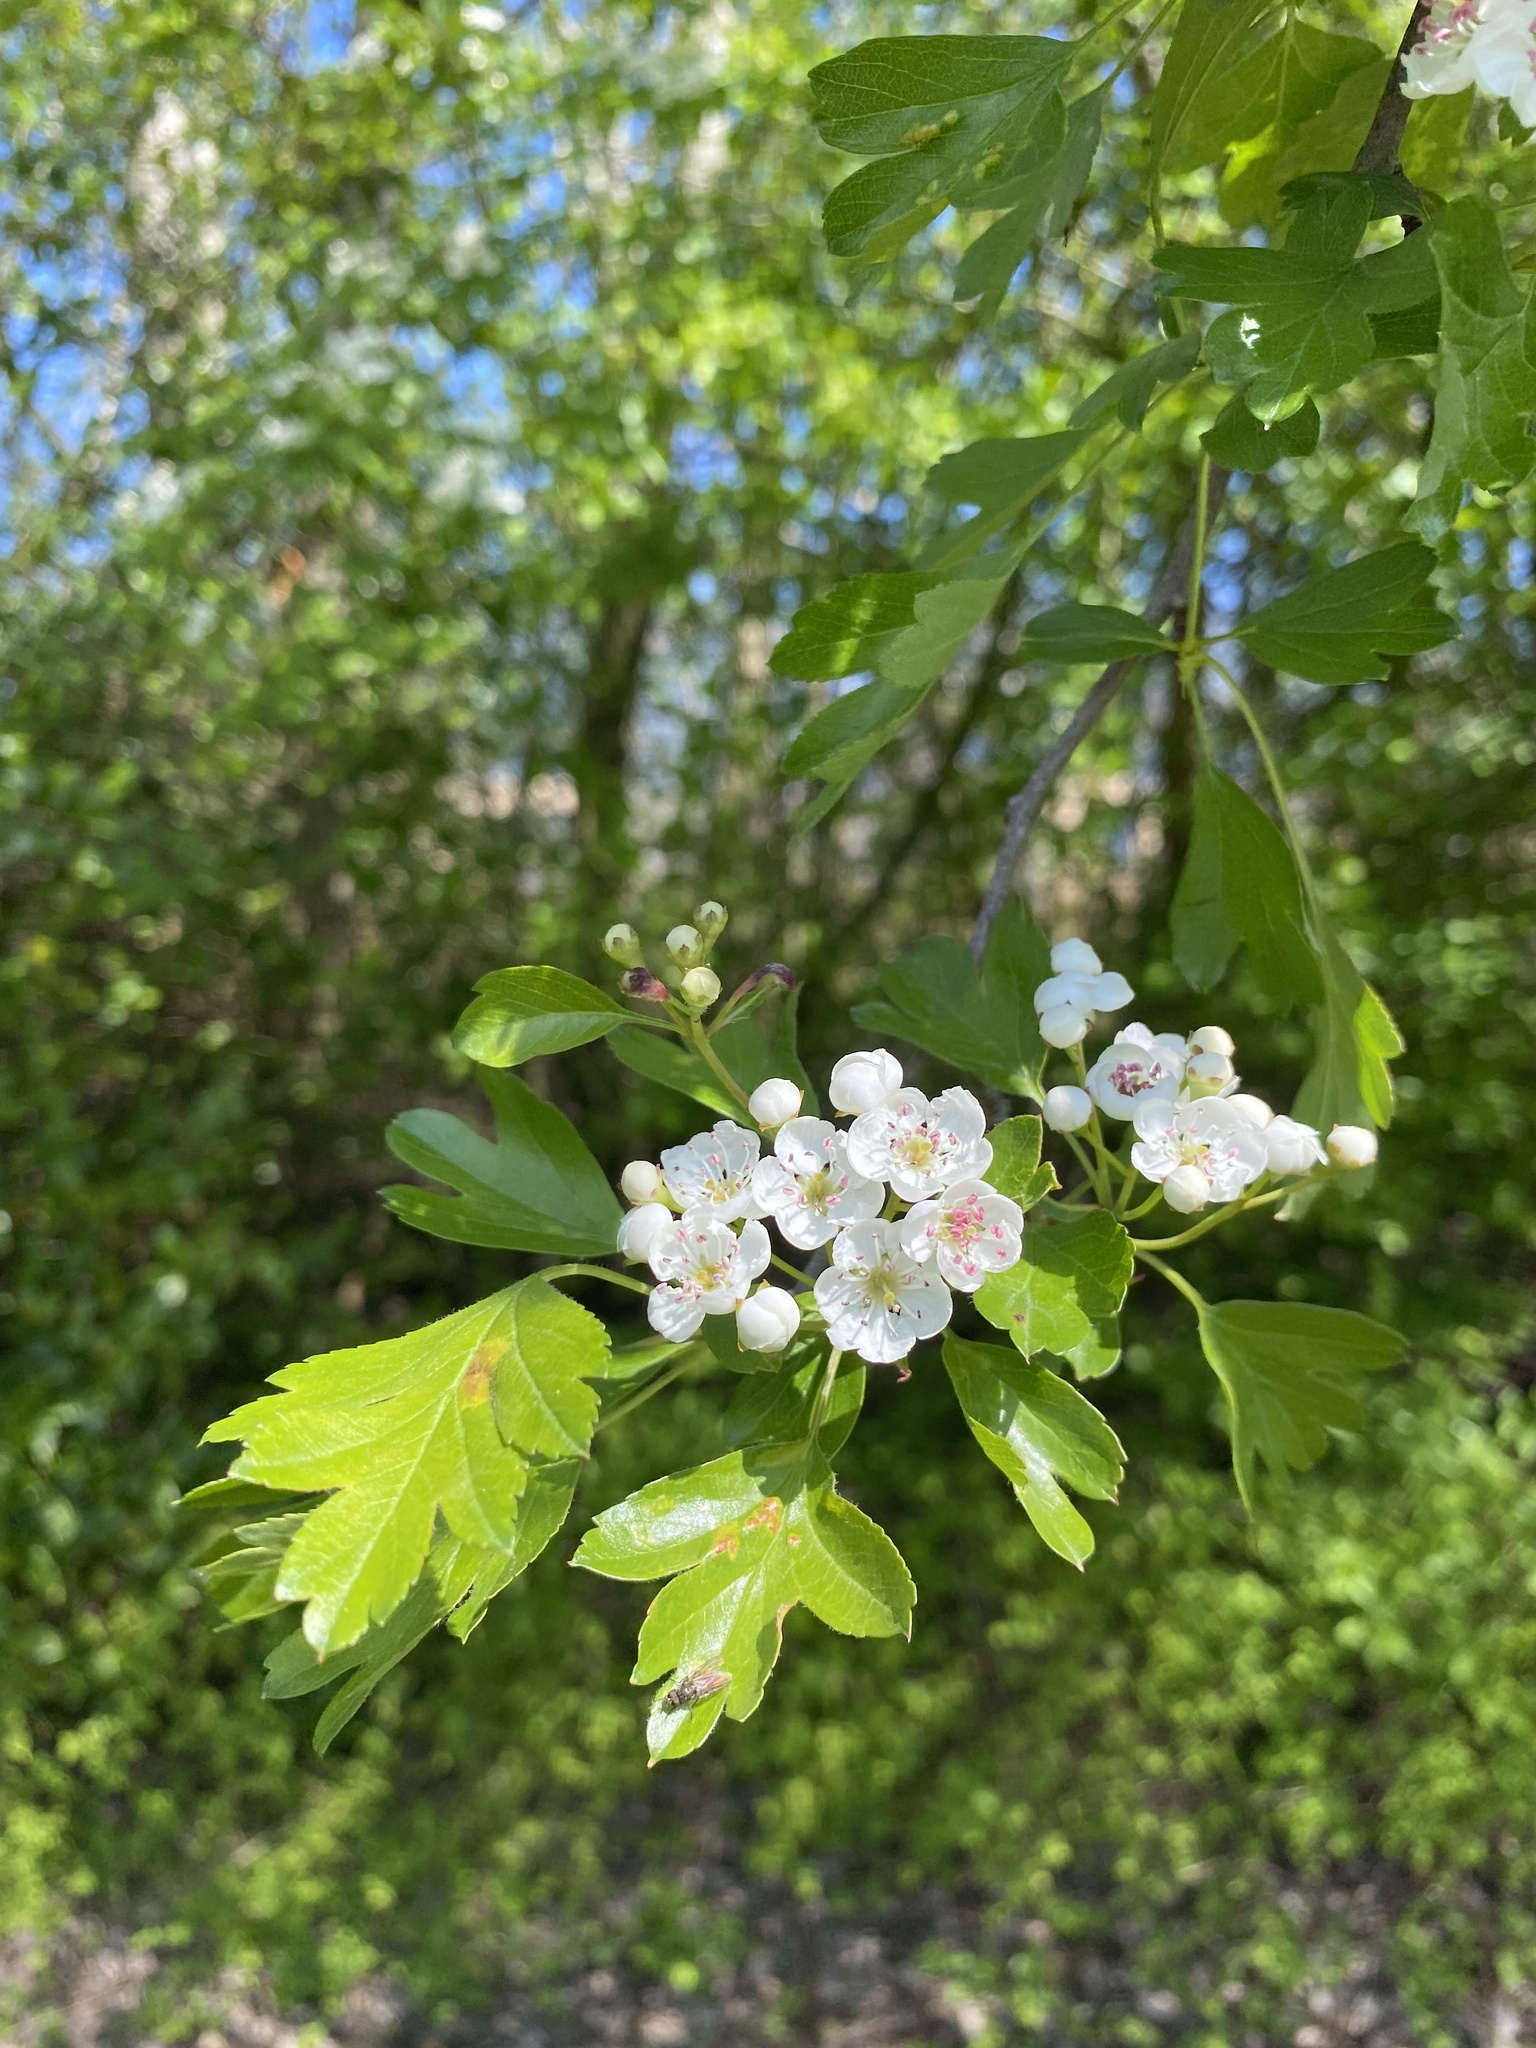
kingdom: Plantae
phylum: Tracheophyta
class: Magnoliopsida
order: Rosales
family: Rosaceae
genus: Crataegus
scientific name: Crataegus monogyna
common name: Hawthorn
